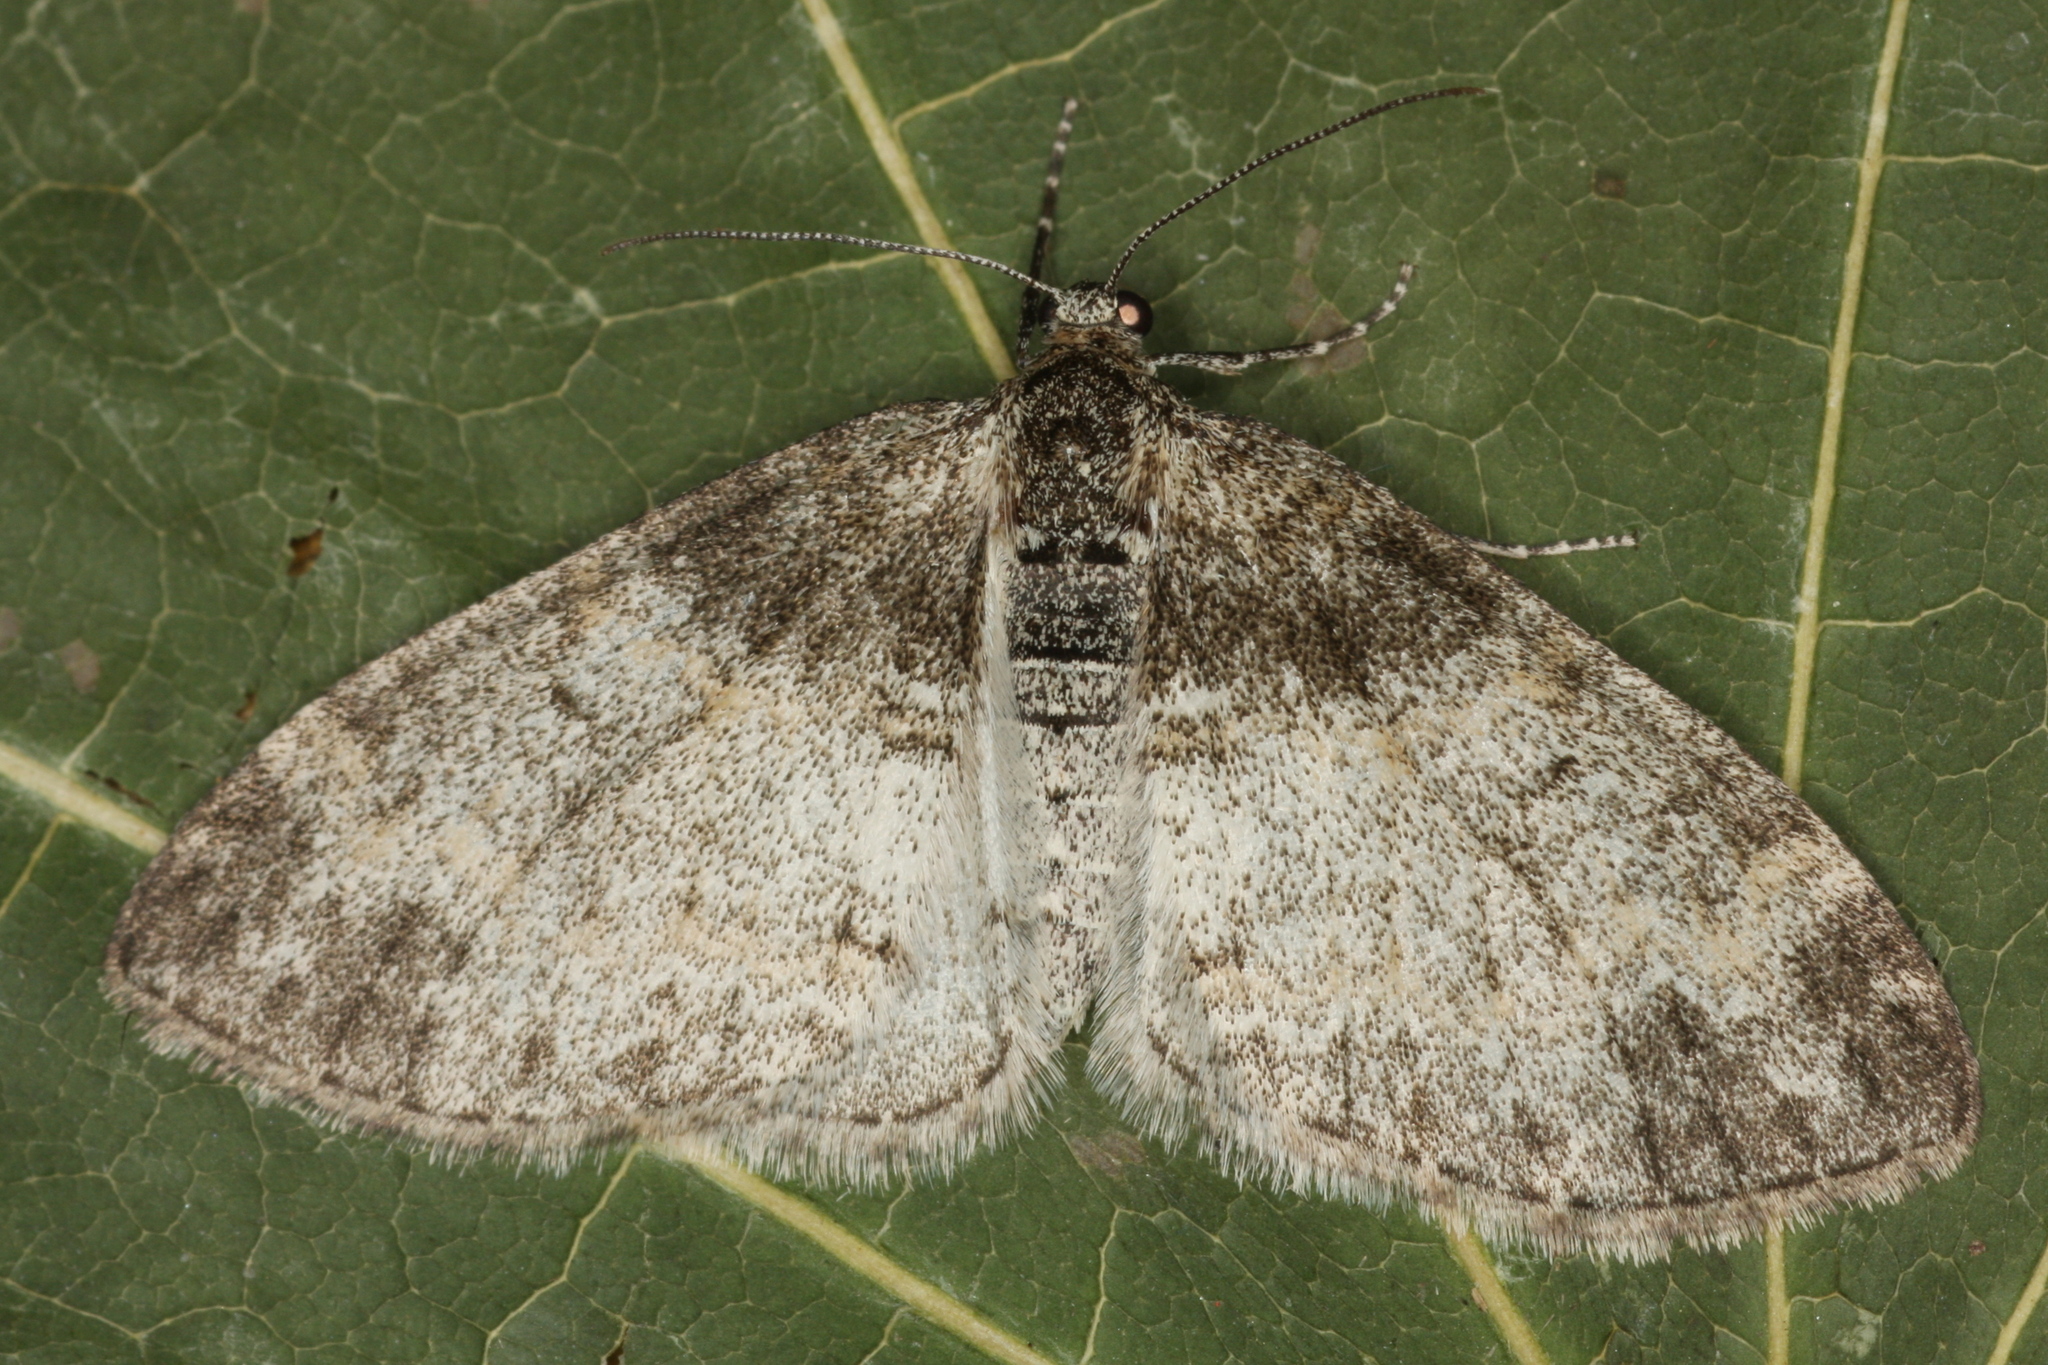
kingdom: Animalia
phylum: Arthropoda
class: Insecta
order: Lepidoptera
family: Geometridae
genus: Lobophora
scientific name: Lobophora halterata
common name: Seraphim
